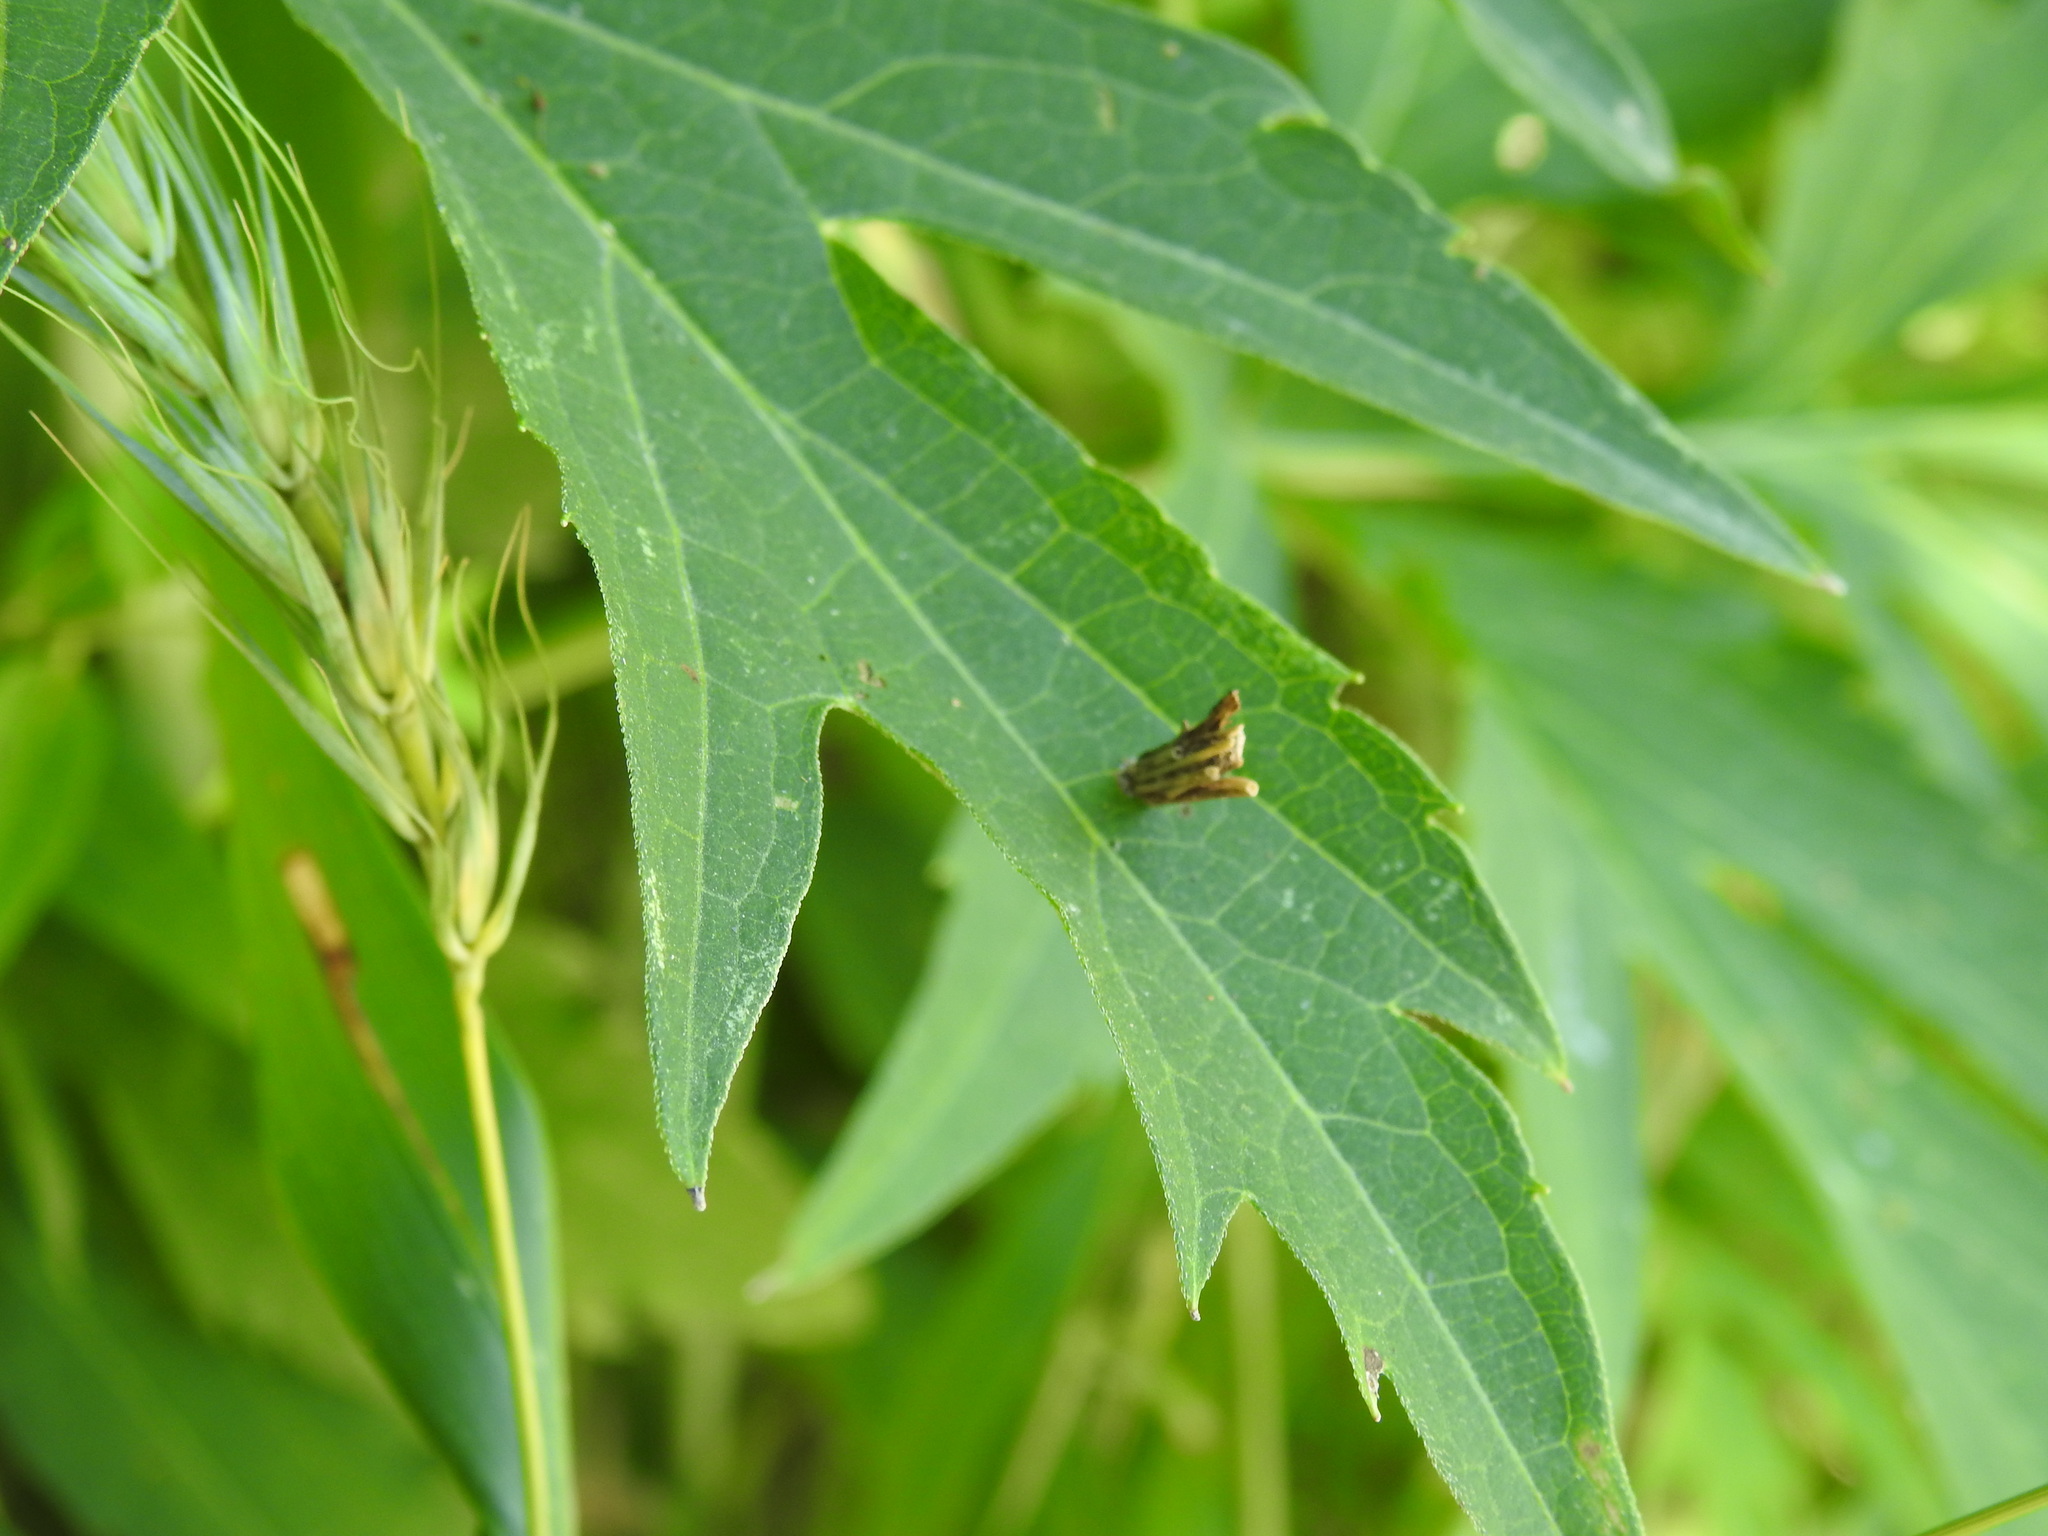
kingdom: Animalia
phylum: Arthropoda
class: Insecta
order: Lepidoptera
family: Psychidae
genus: Psyche
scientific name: Psyche casta
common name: Common sweep
